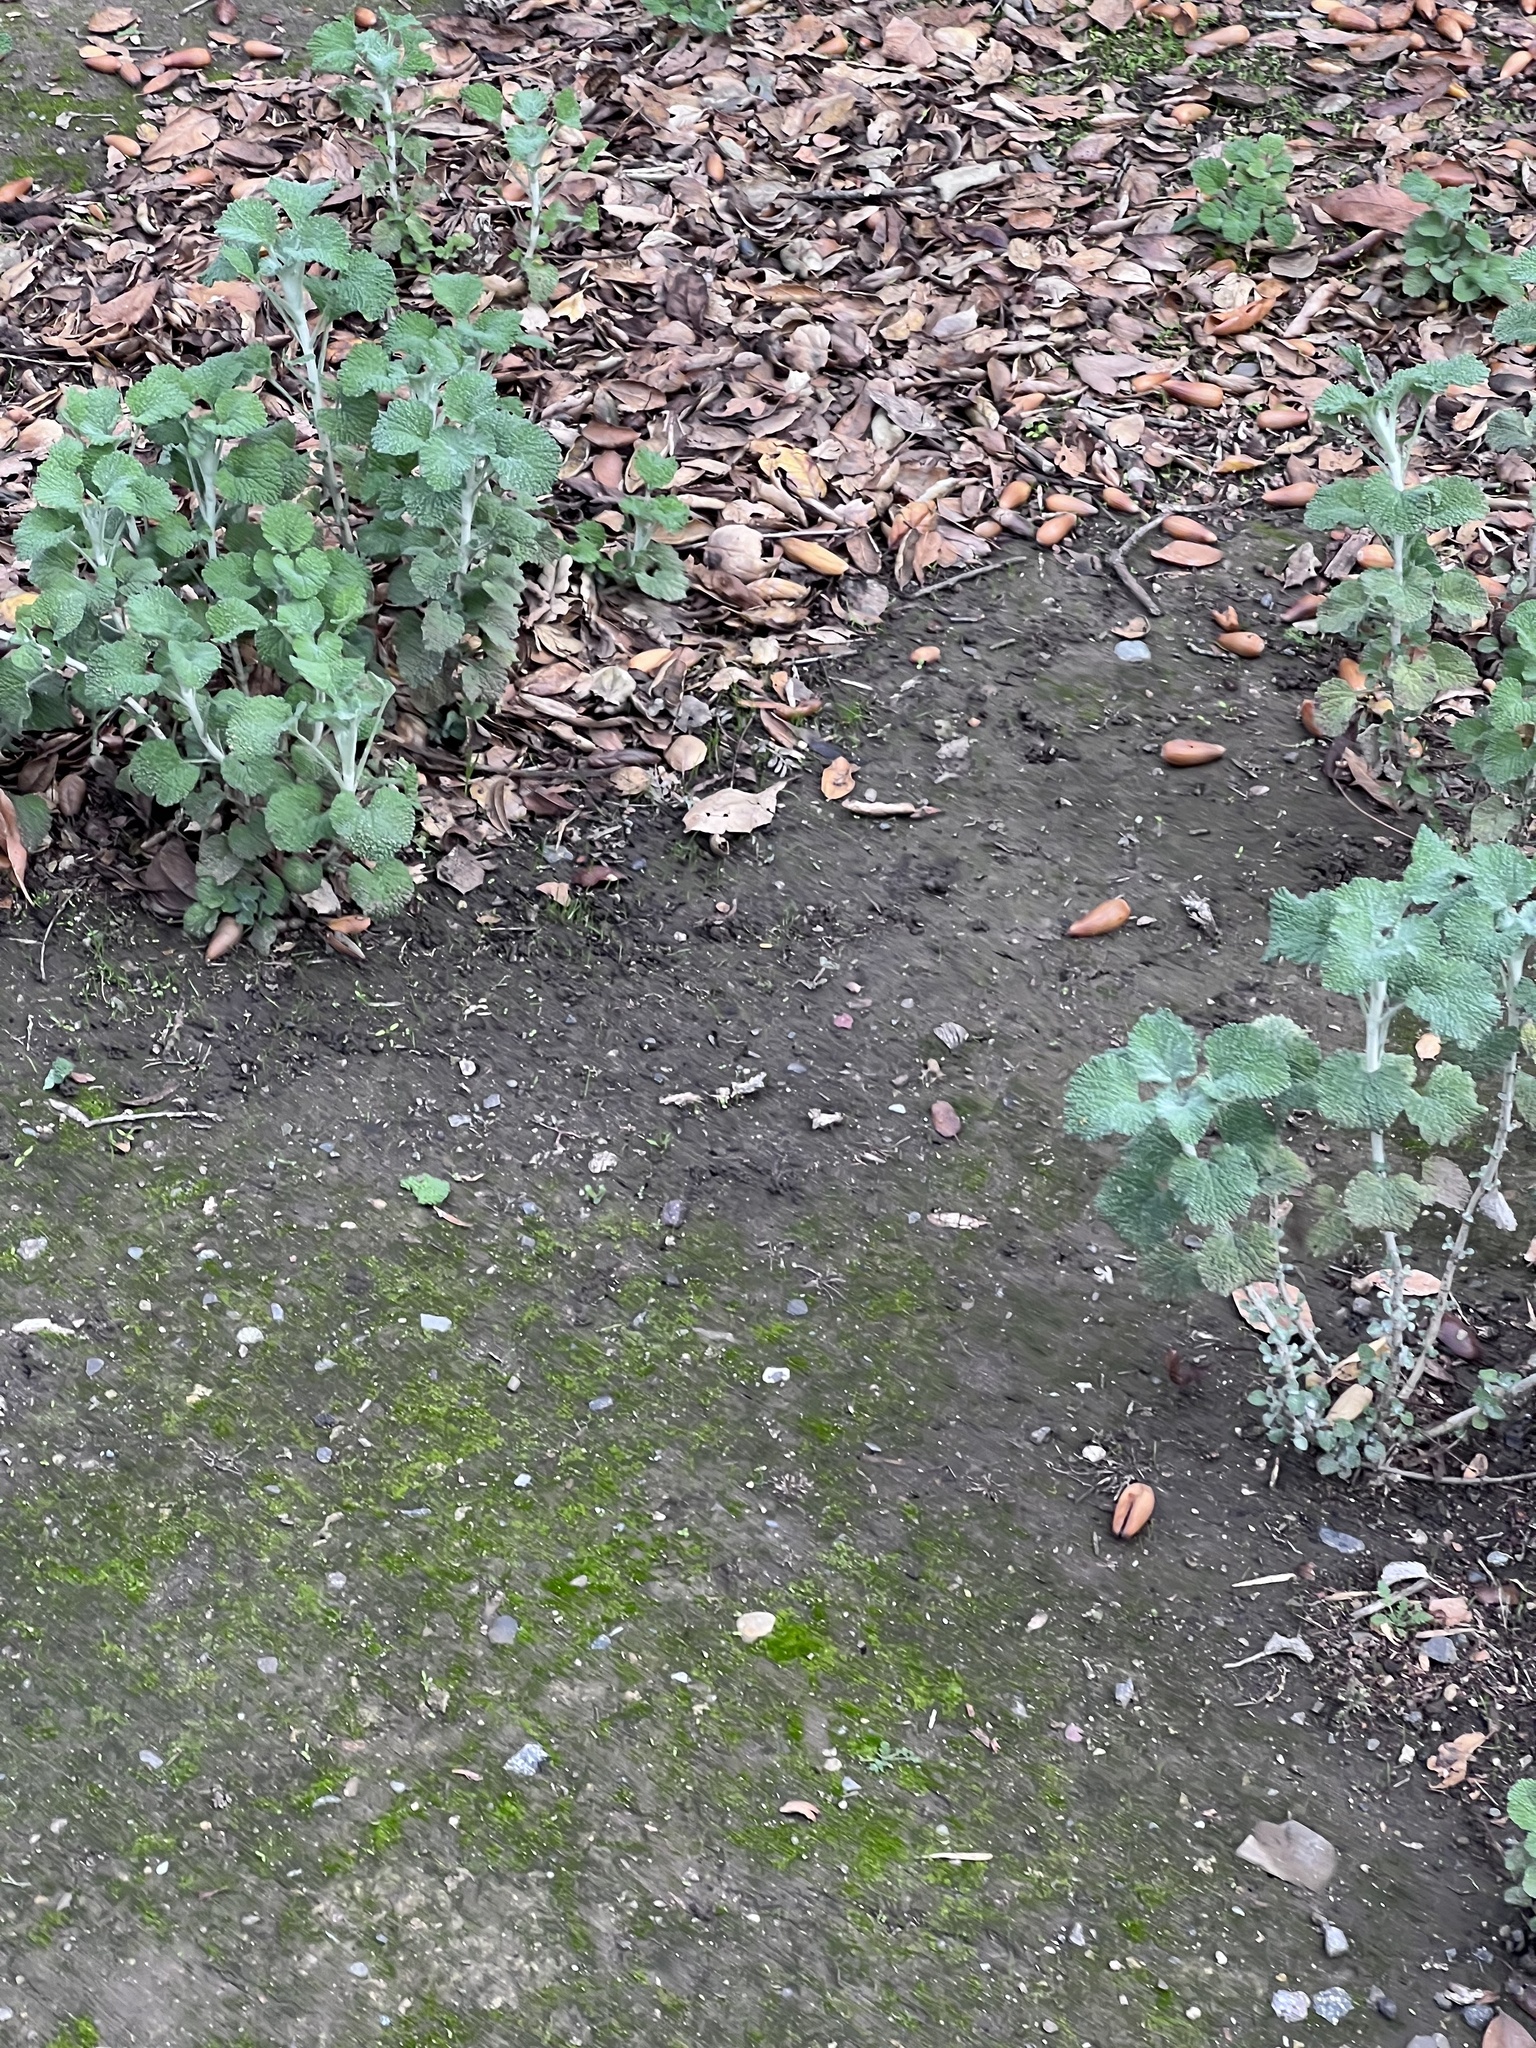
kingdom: Plantae
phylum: Tracheophyta
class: Magnoliopsida
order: Lamiales
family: Lamiaceae
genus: Marrubium
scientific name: Marrubium vulgare
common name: Horehound
